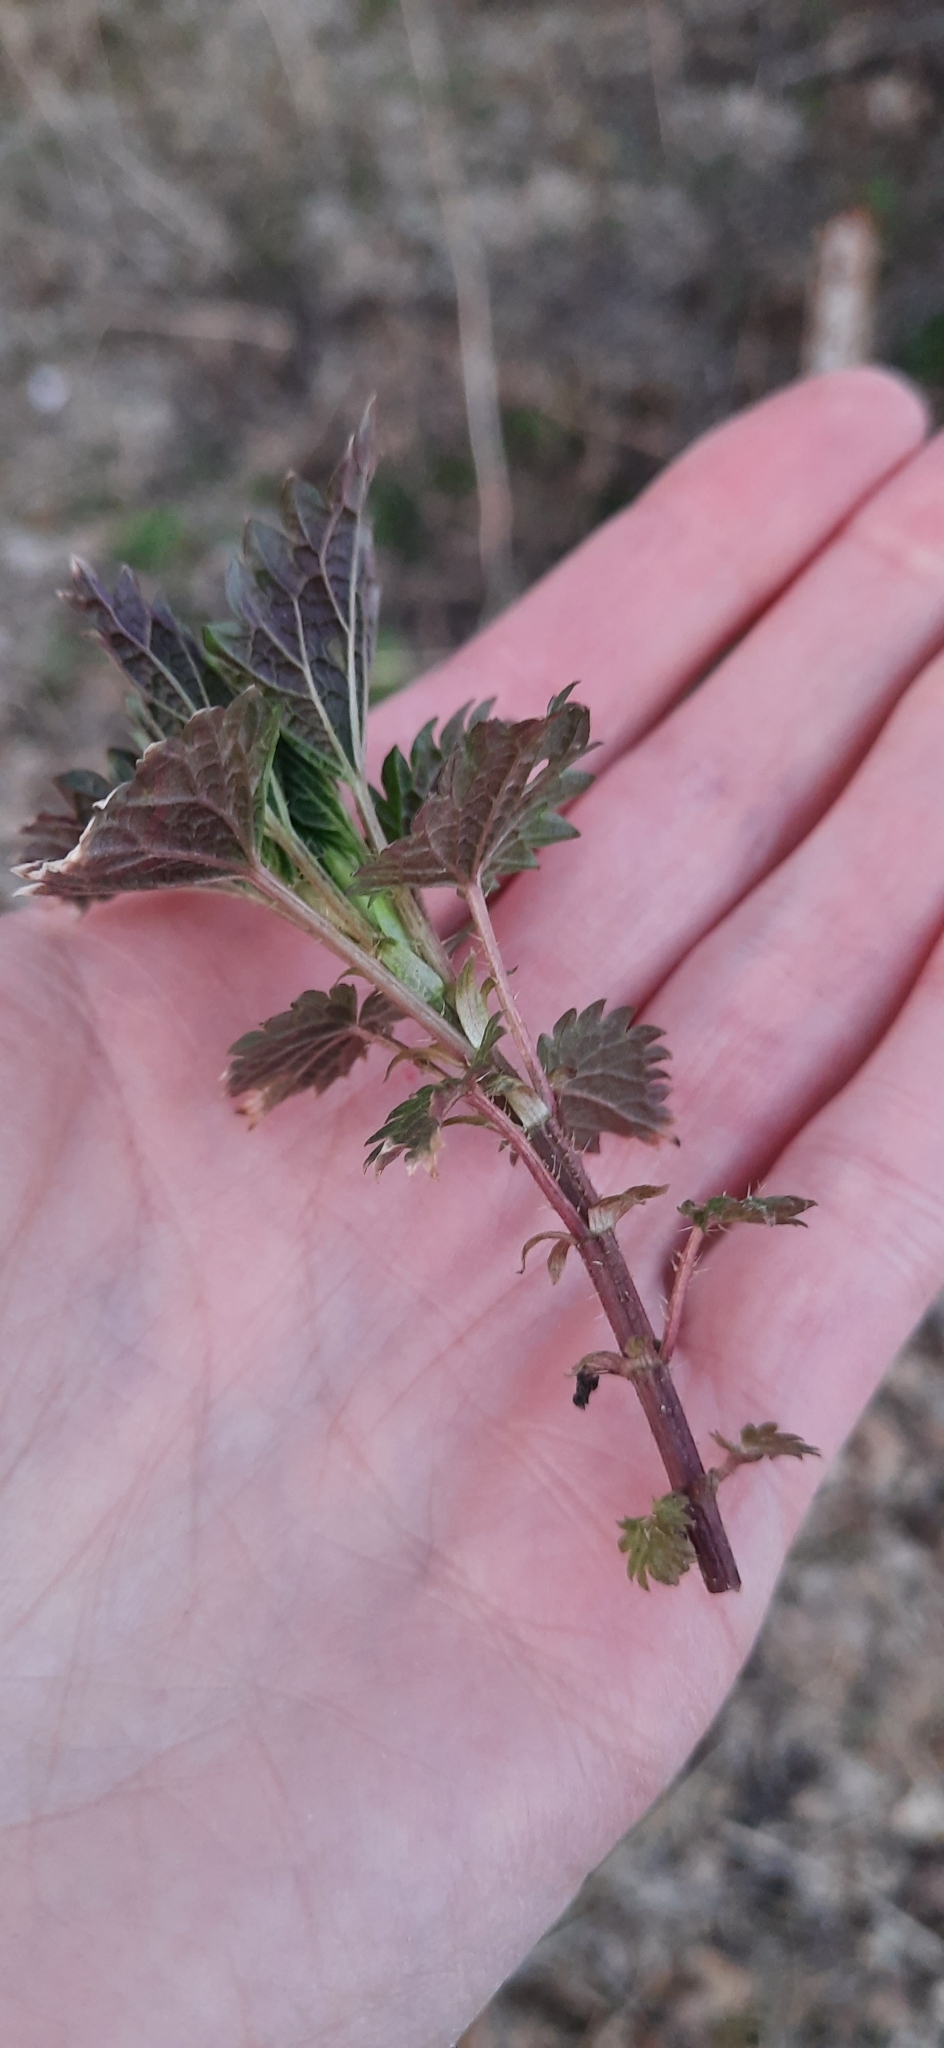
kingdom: Plantae
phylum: Tracheophyta
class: Magnoliopsida
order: Rosales
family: Urticaceae
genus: Urtica
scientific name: Urtica dioica
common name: Common nettle
